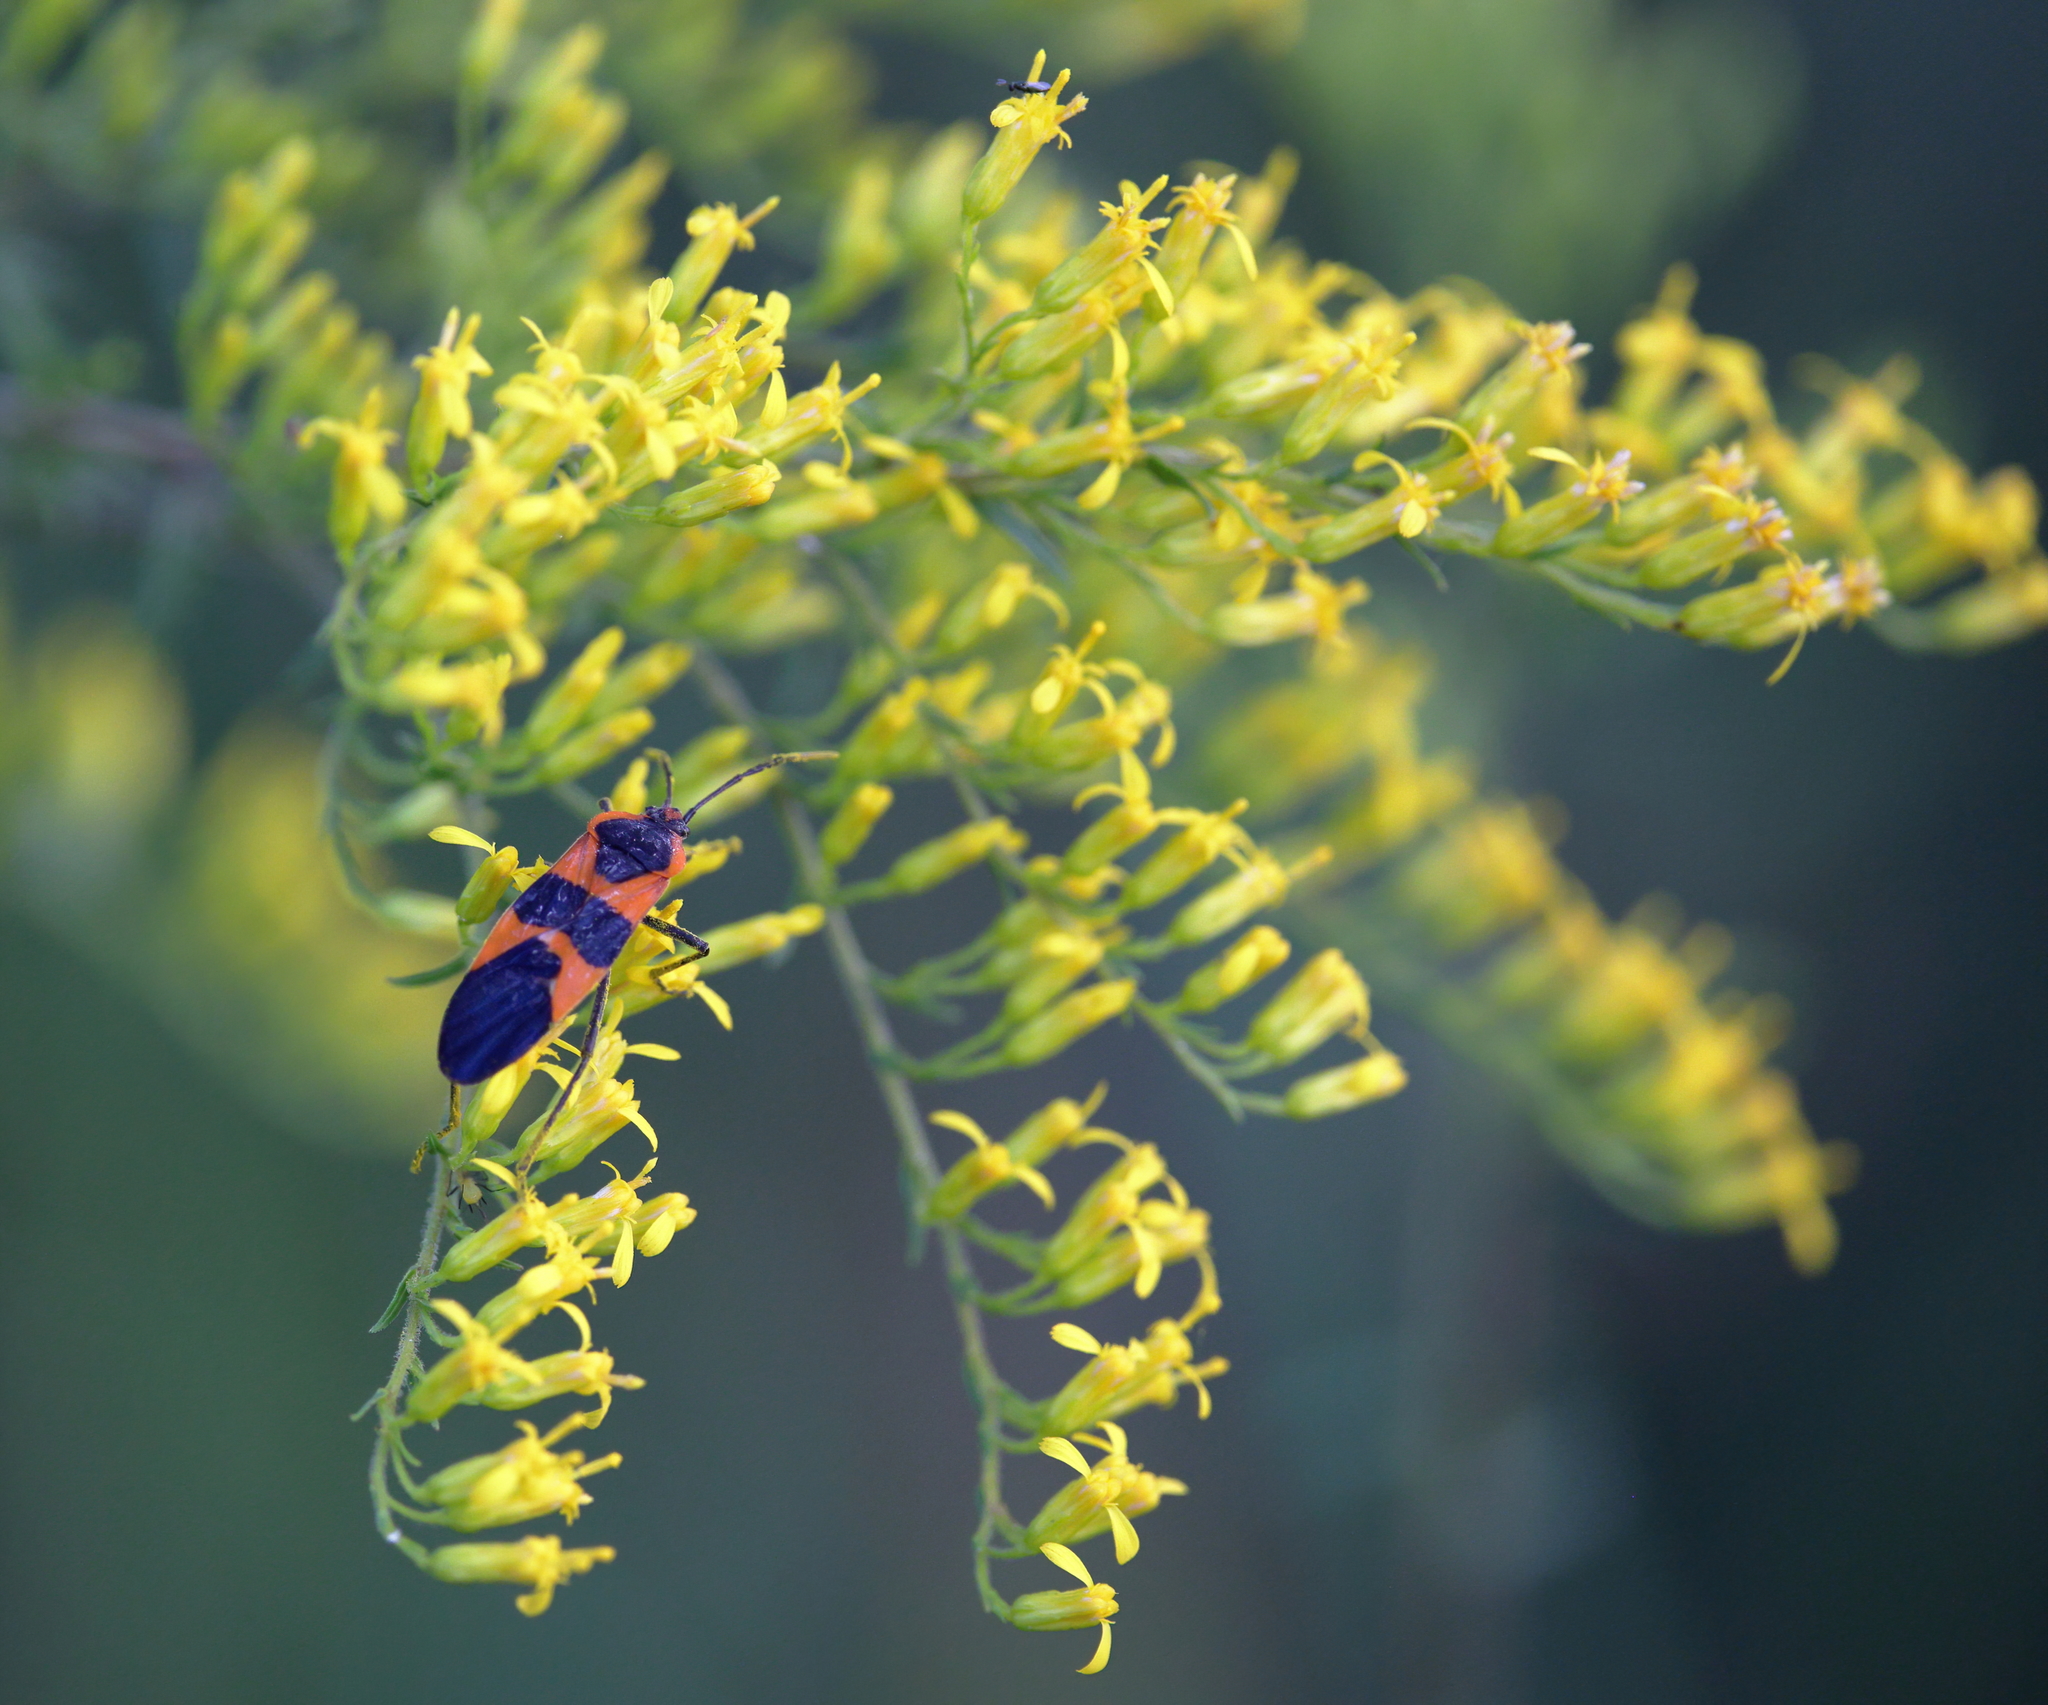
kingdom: Animalia
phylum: Arthropoda
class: Insecta
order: Hemiptera
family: Lygaeidae
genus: Oncopeltus
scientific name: Oncopeltus fasciatus
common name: Large milkweed bug
